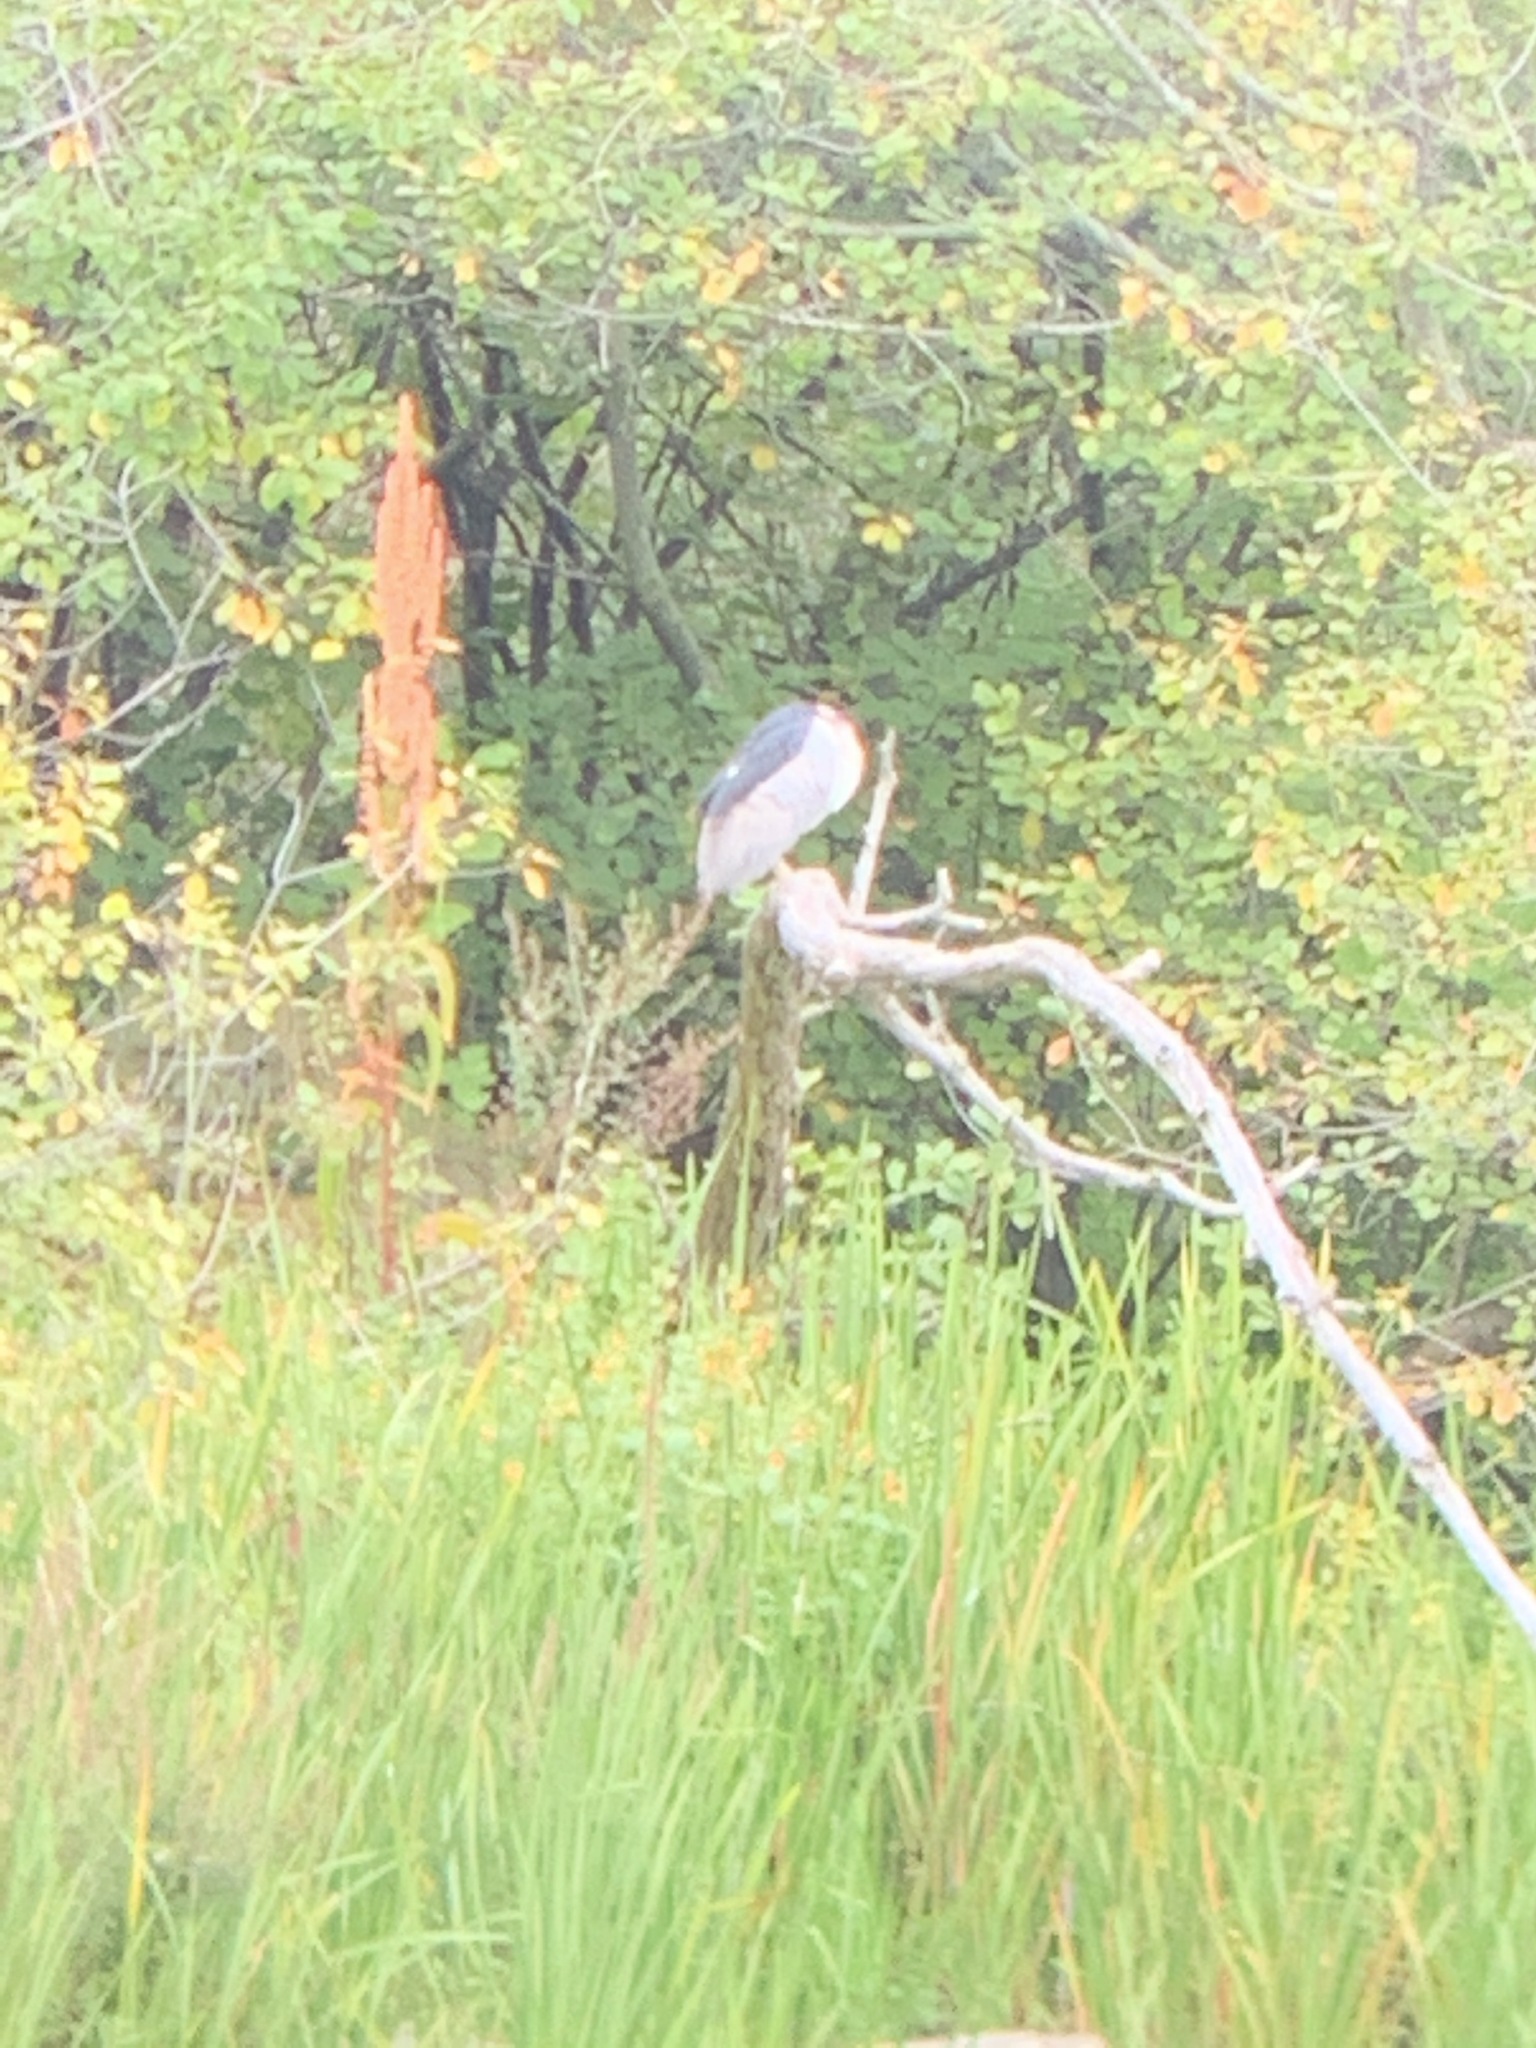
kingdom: Animalia
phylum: Chordata
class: Aves
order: Pelecaniformes
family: Ardeidae
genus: Nycticorax
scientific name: Nycticorax nycticorax
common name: Black-crowned night heron
